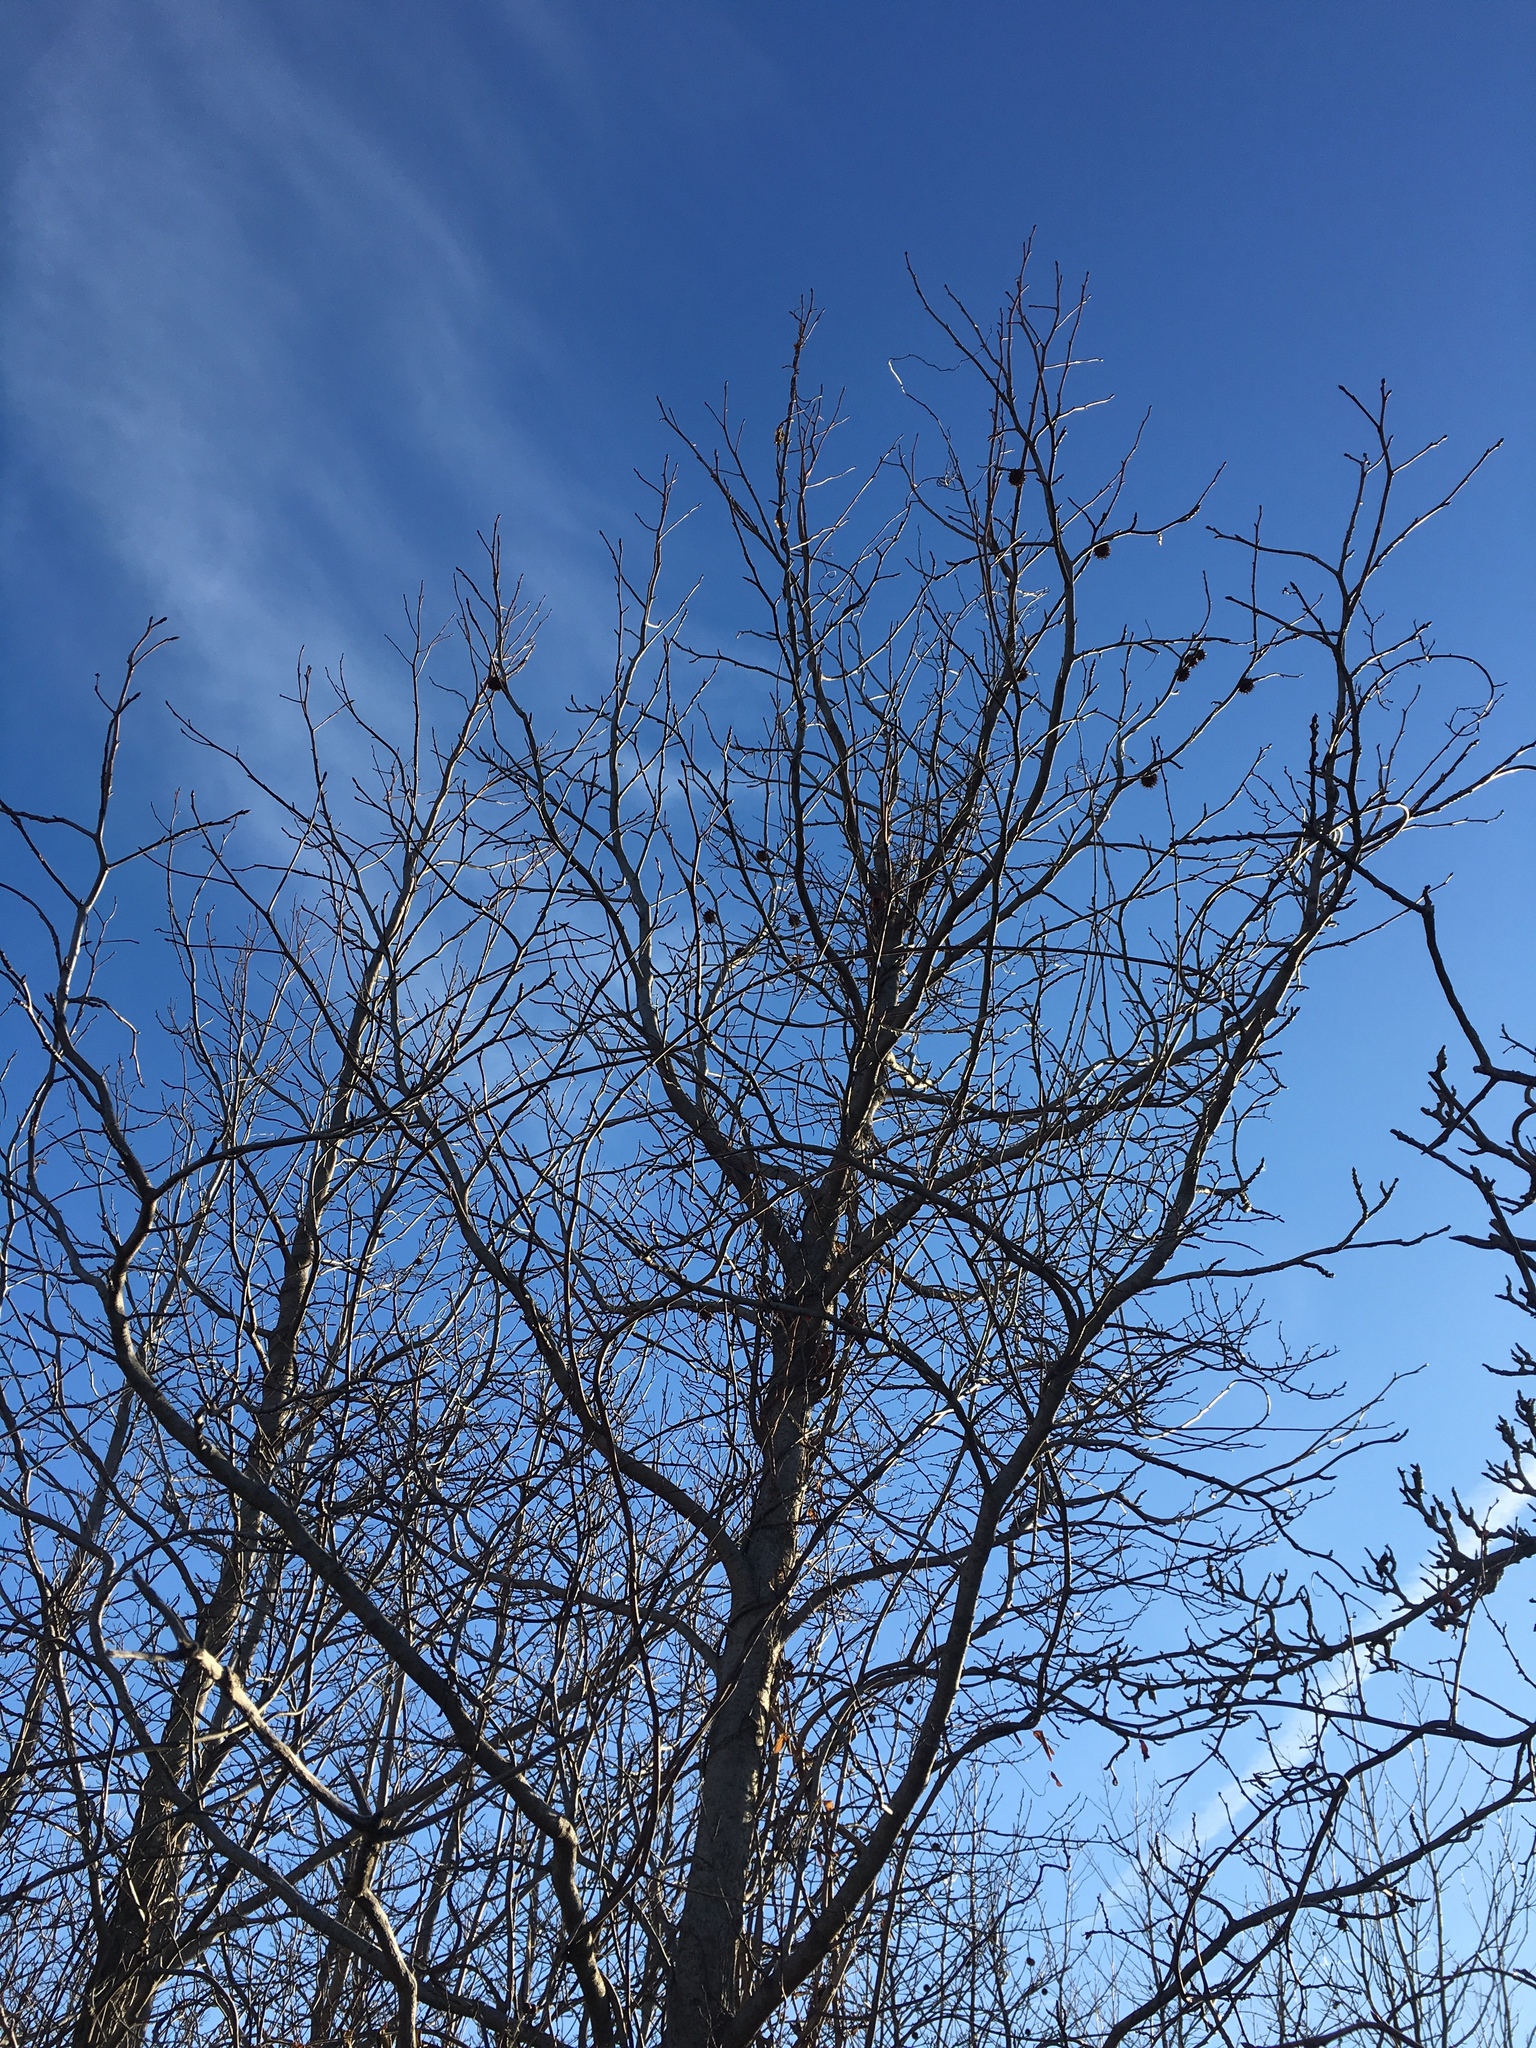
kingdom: Plantae
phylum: Tracheophyta
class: Magnoliopsida
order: Saxifragales
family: Altingiaceae
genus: Liquidambar
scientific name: Liquidambar styraciflua
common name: Sweet gum
